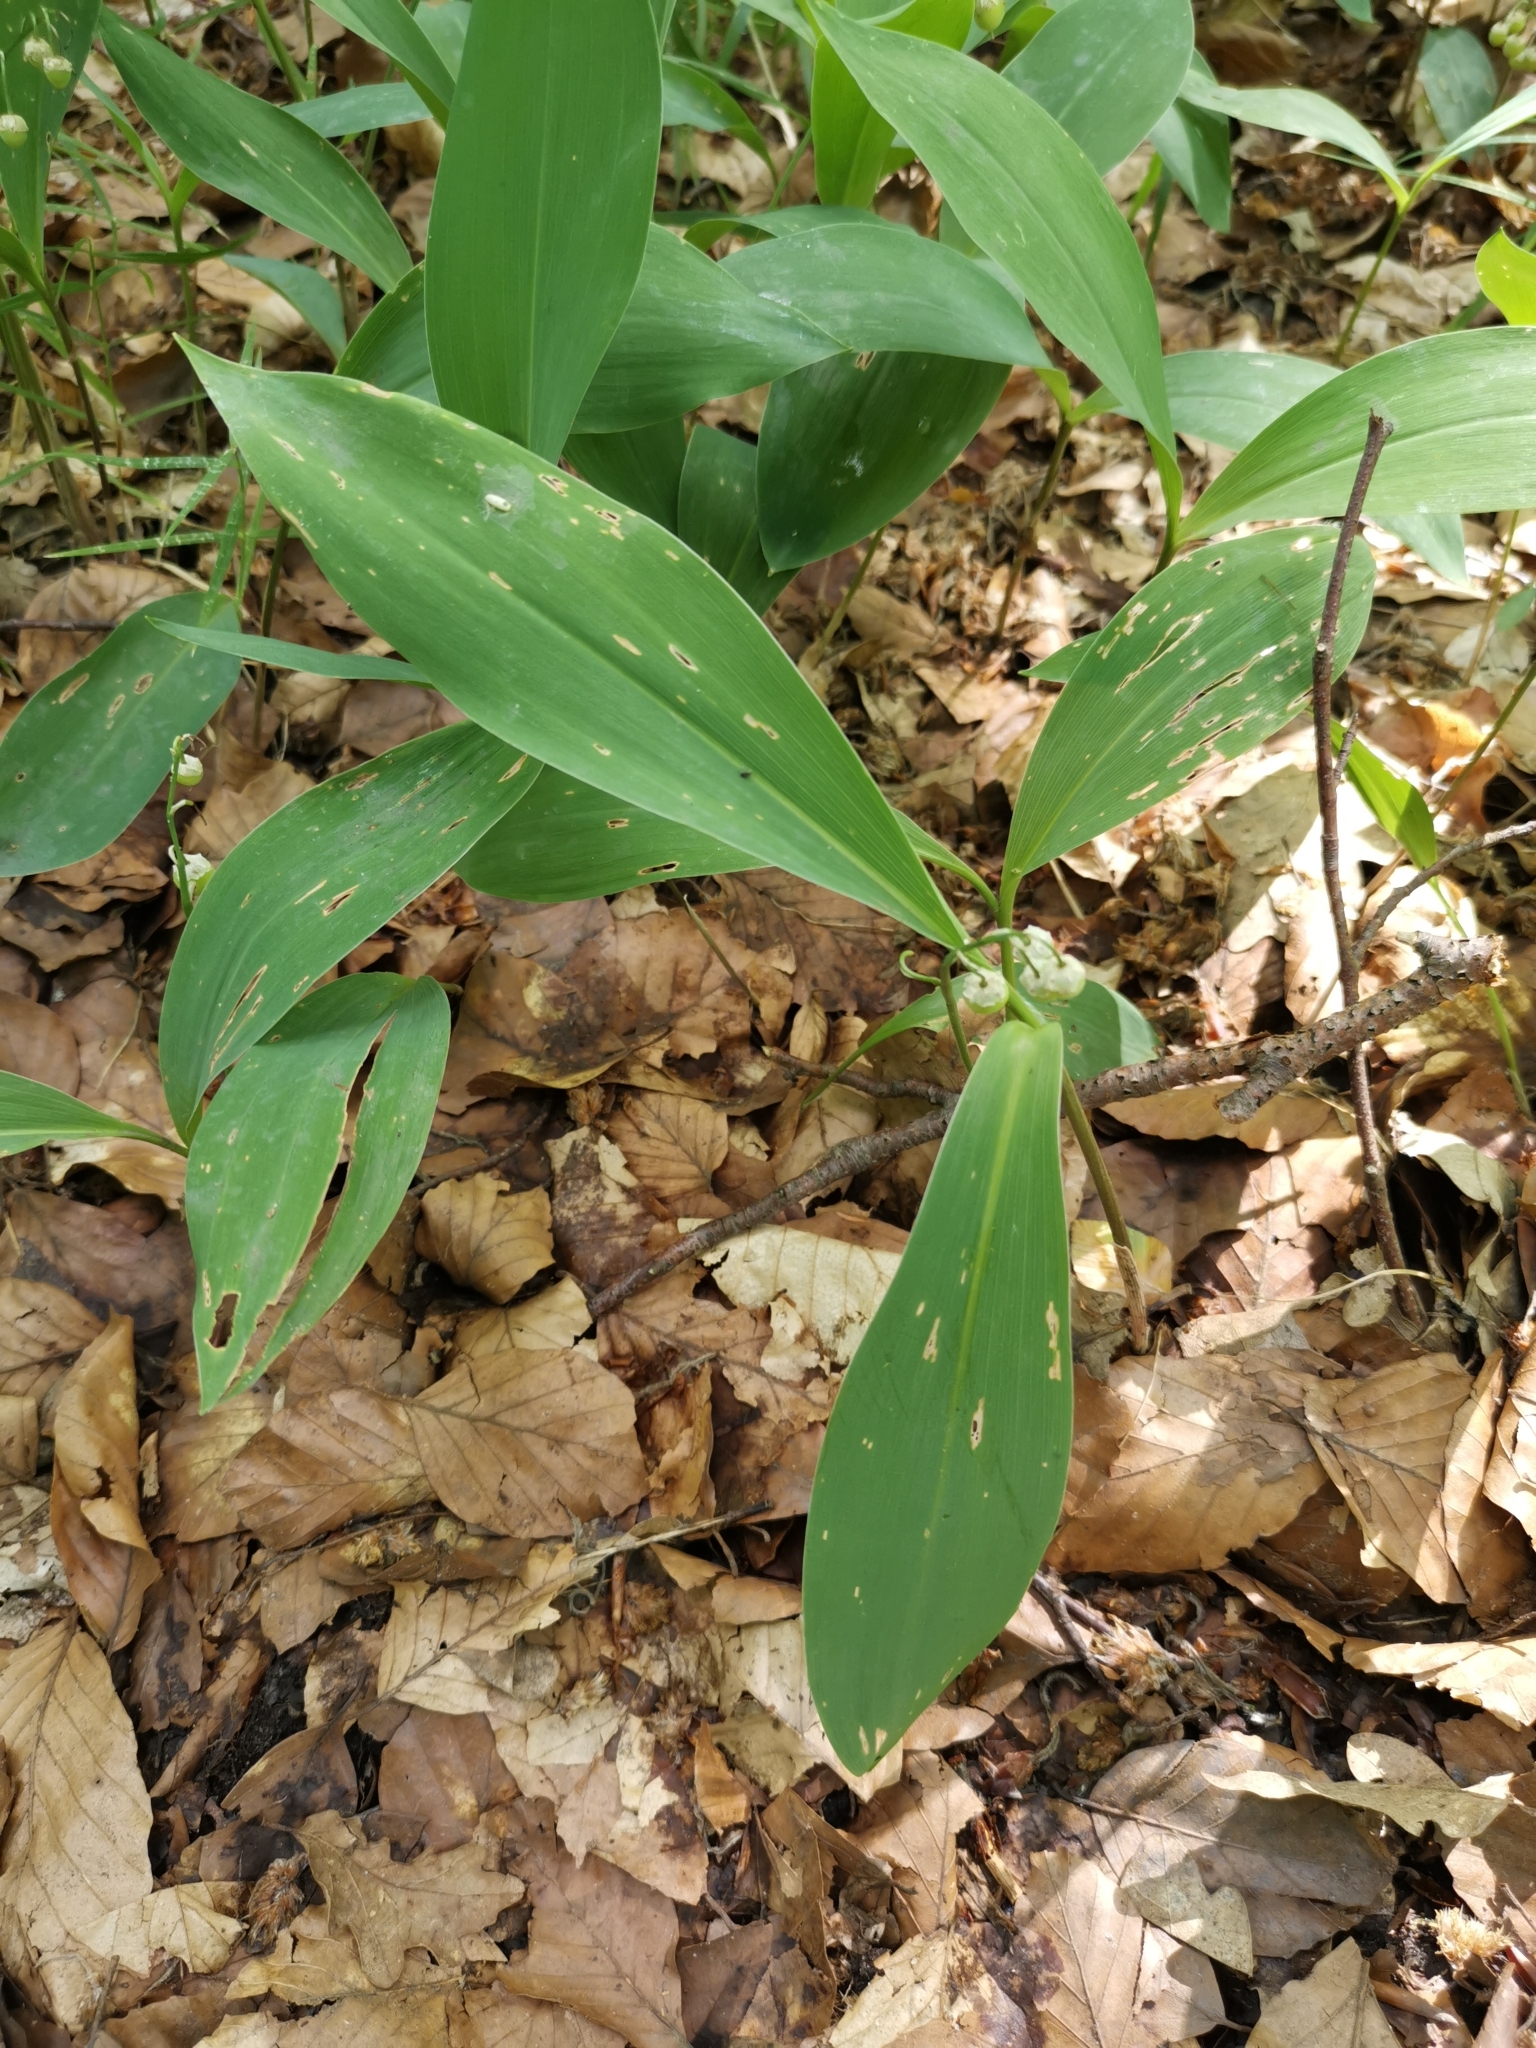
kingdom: Plantae
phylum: Tracheophyta
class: Liliopsida
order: Asparagales
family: Asparagaceae
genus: Convallaria
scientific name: Convallaria majalis
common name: Lily-of-the-valley
